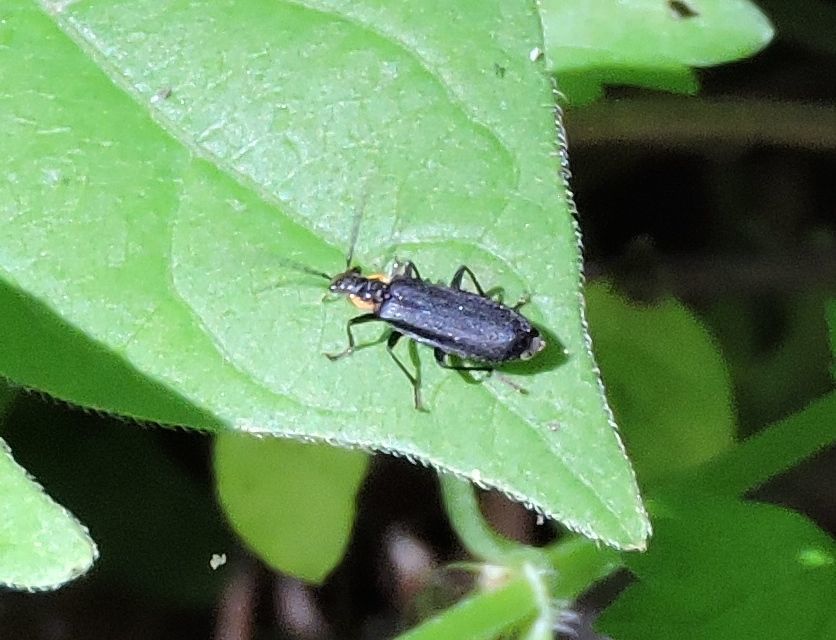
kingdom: Animalia
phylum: Arthropoda
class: Insecta
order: Coleoptera
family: Cantharidae
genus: Podabrus
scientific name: Podabrus rugosulus
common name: Wrinkled soldier beetle
